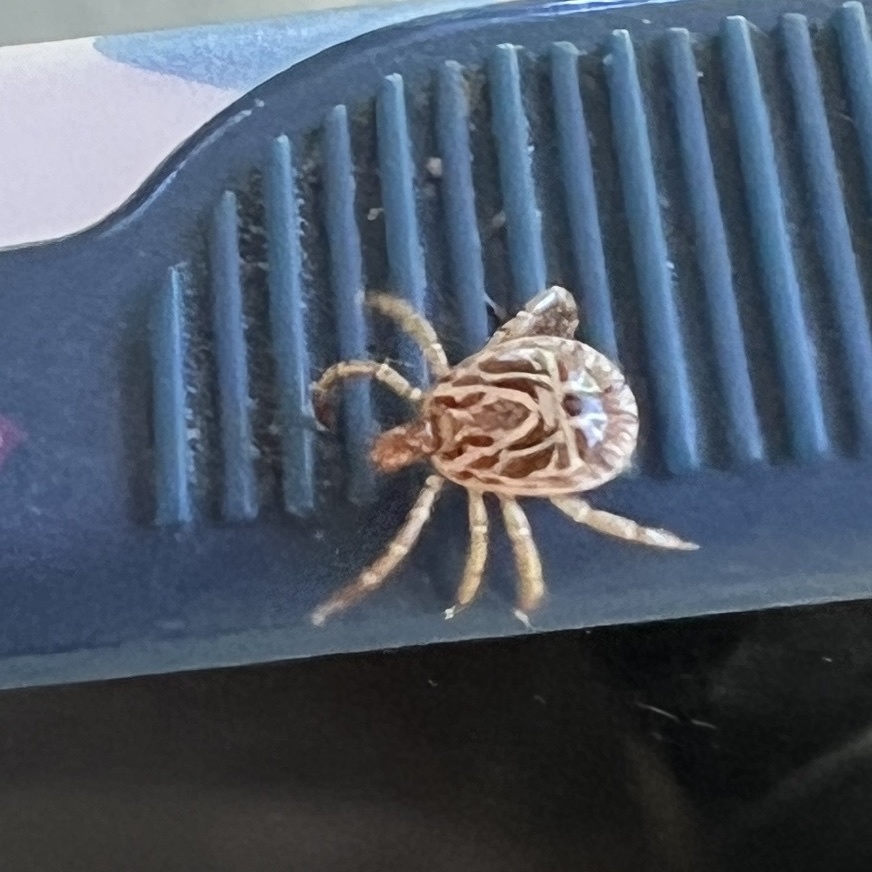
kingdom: Animalia
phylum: Arthropoda
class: Arachnida
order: Ixodida
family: Ixodidae
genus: Amblyomma
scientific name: Amblyomma cajennense
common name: Cayenne tick
